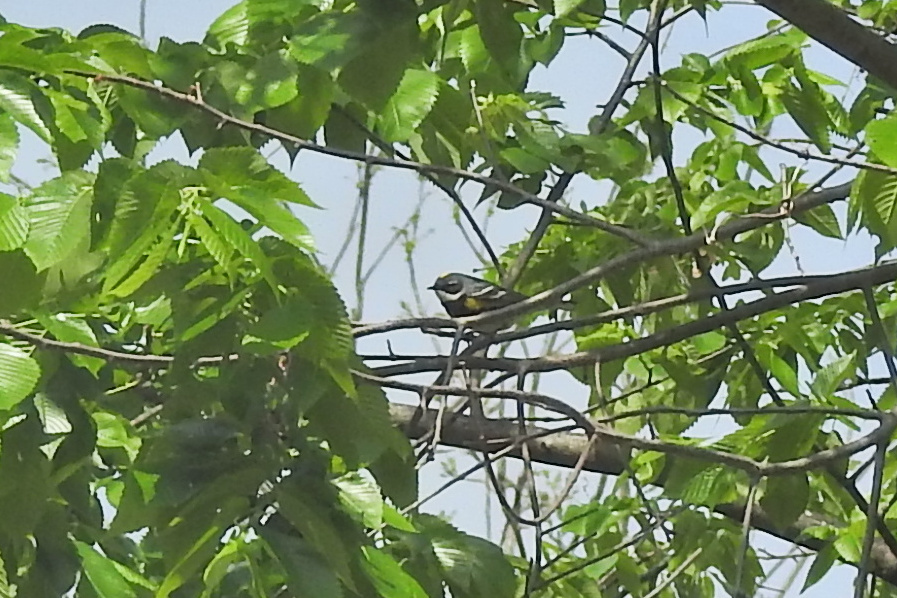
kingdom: Animalia
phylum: Chordata
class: Aves
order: Passeriformes
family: Parulidae
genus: Setophaga
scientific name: Setophaga coronata
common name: Myrtle warbler
